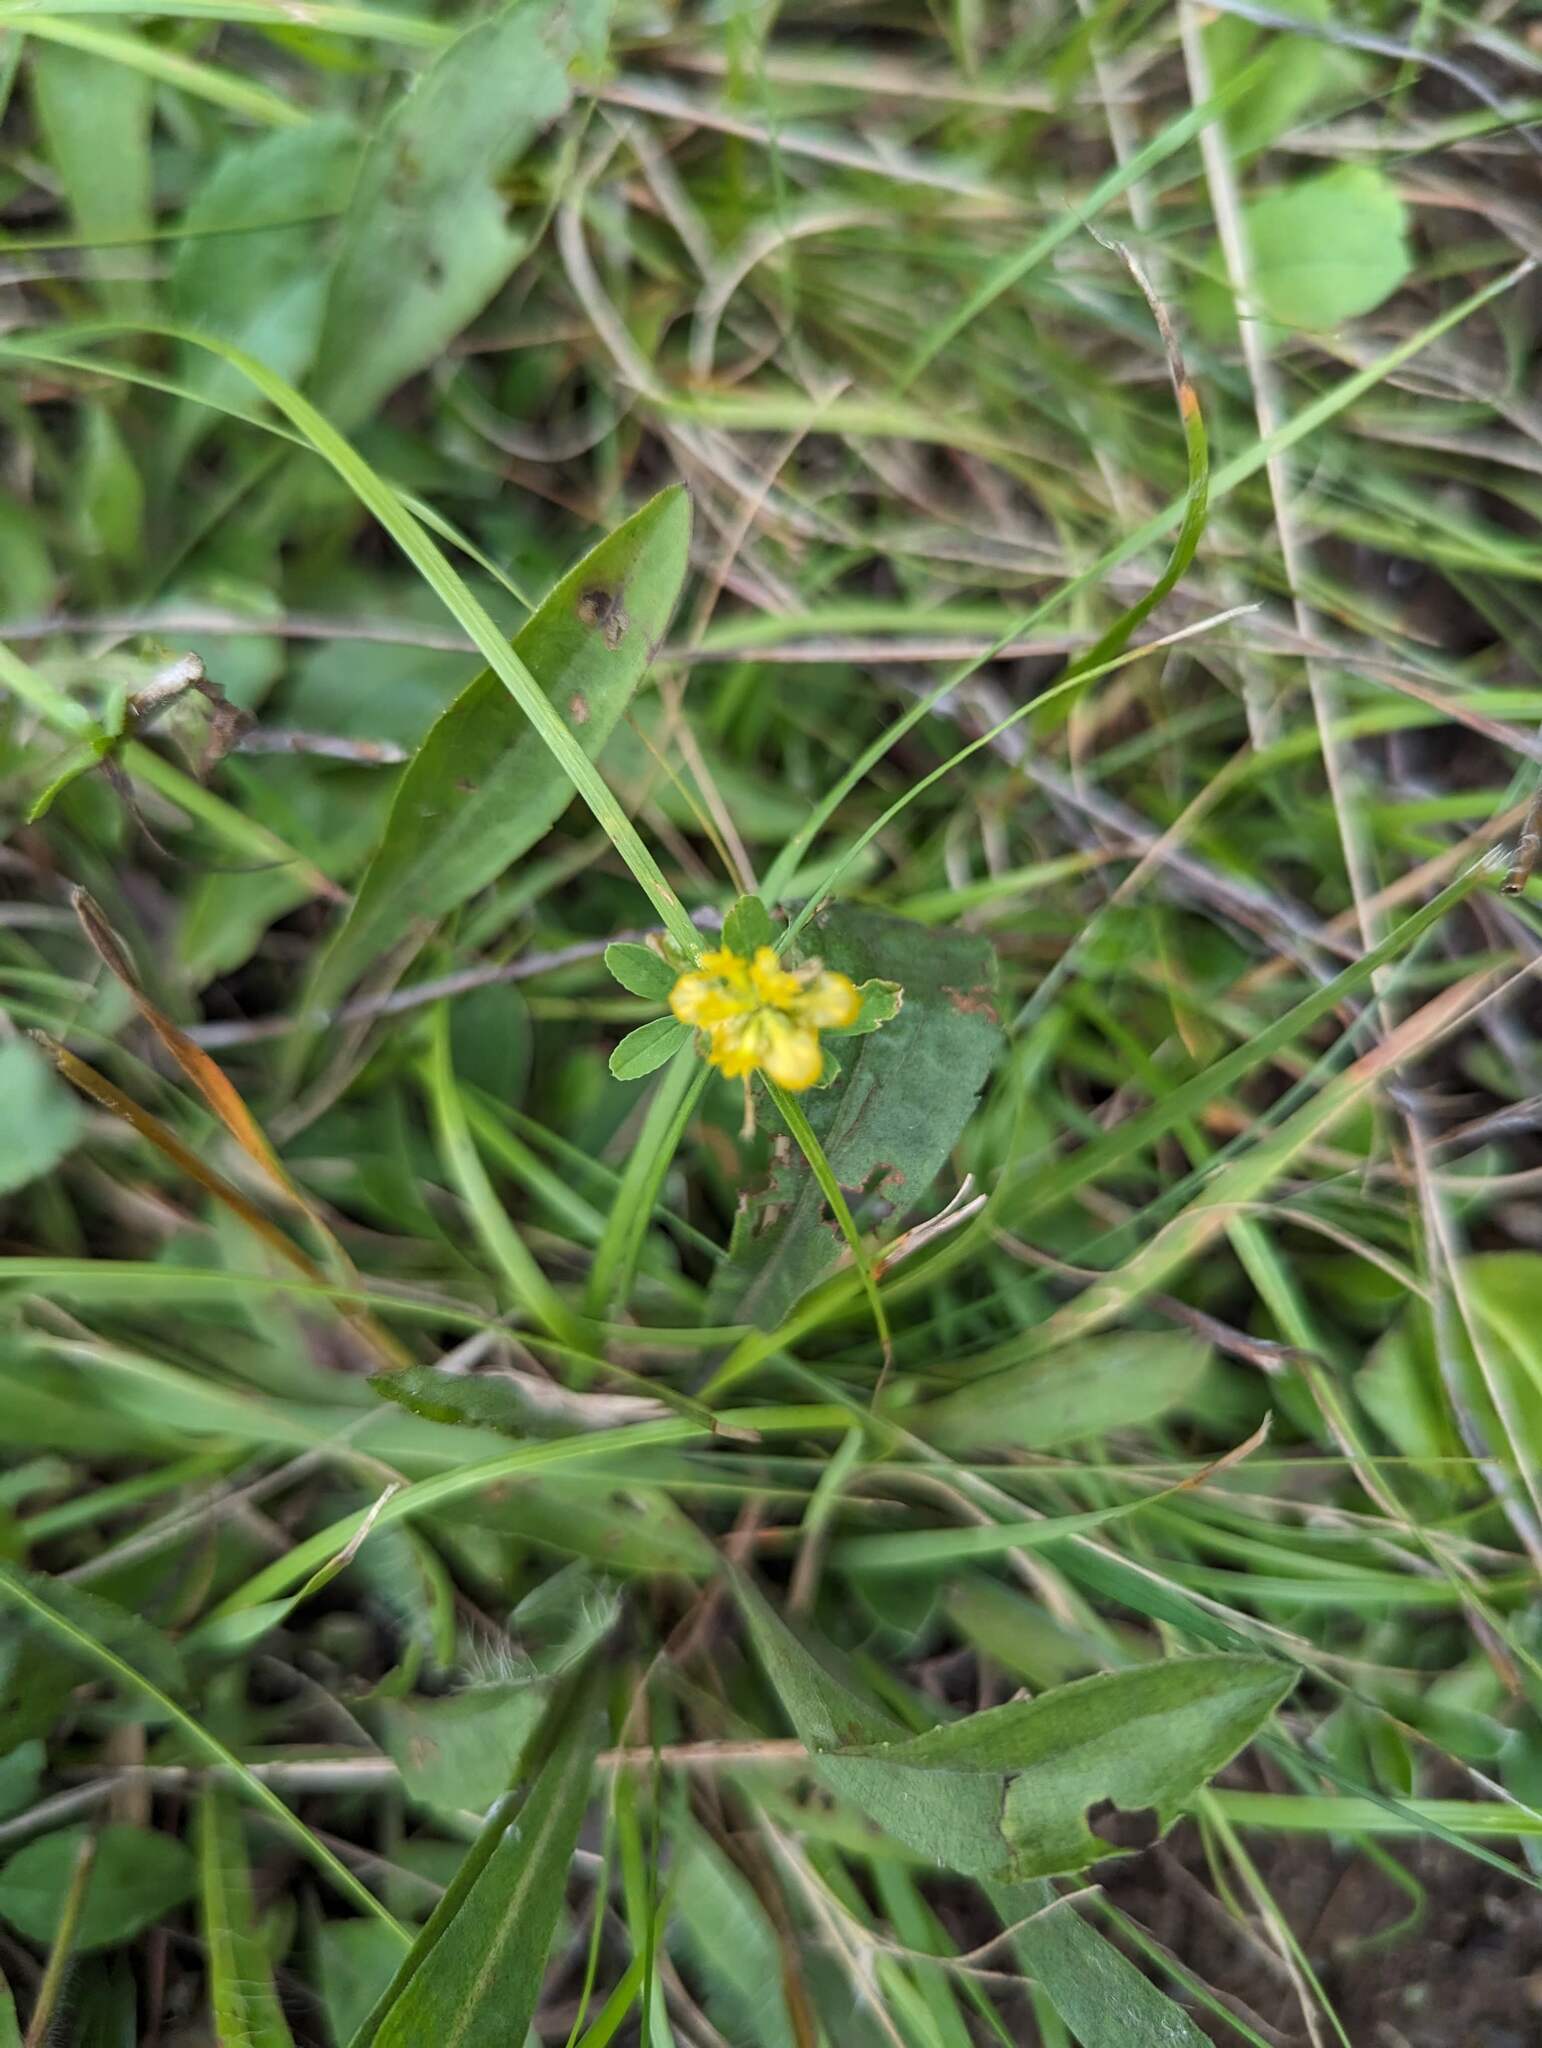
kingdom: Plantae
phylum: Tracheophyta
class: Magnoliopsida
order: Fabales
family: Fabaceae
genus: Trifolium
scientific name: Trifolium aureum
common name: Golden clover
